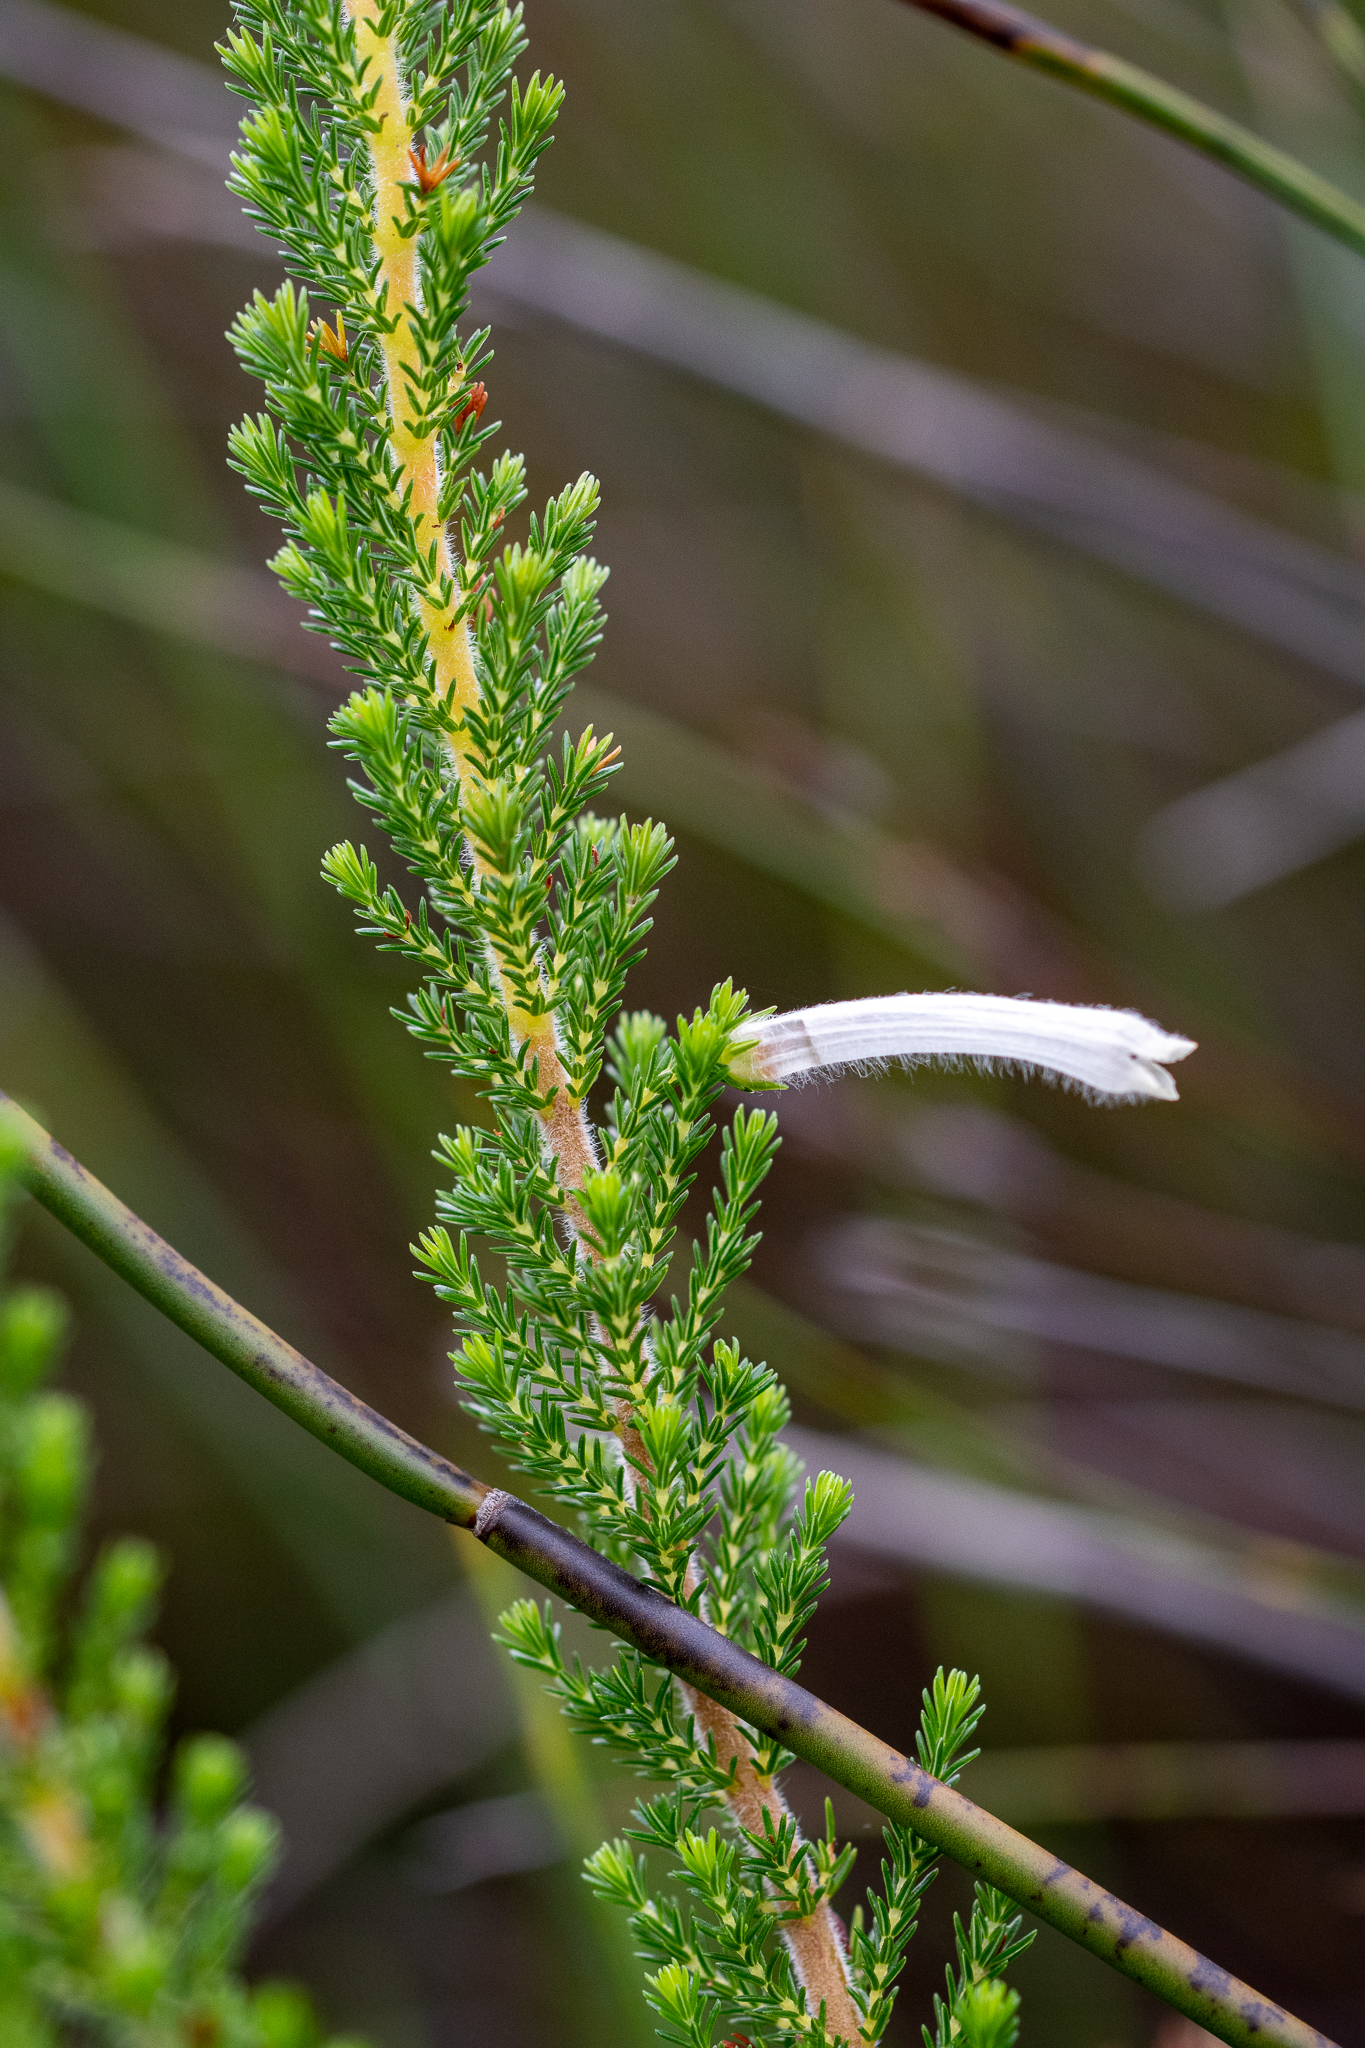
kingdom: Plantae
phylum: Tracheophyta
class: Magnoliopsida
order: Ericales
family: Ericaceae
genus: Erica
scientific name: Erica perspicua
